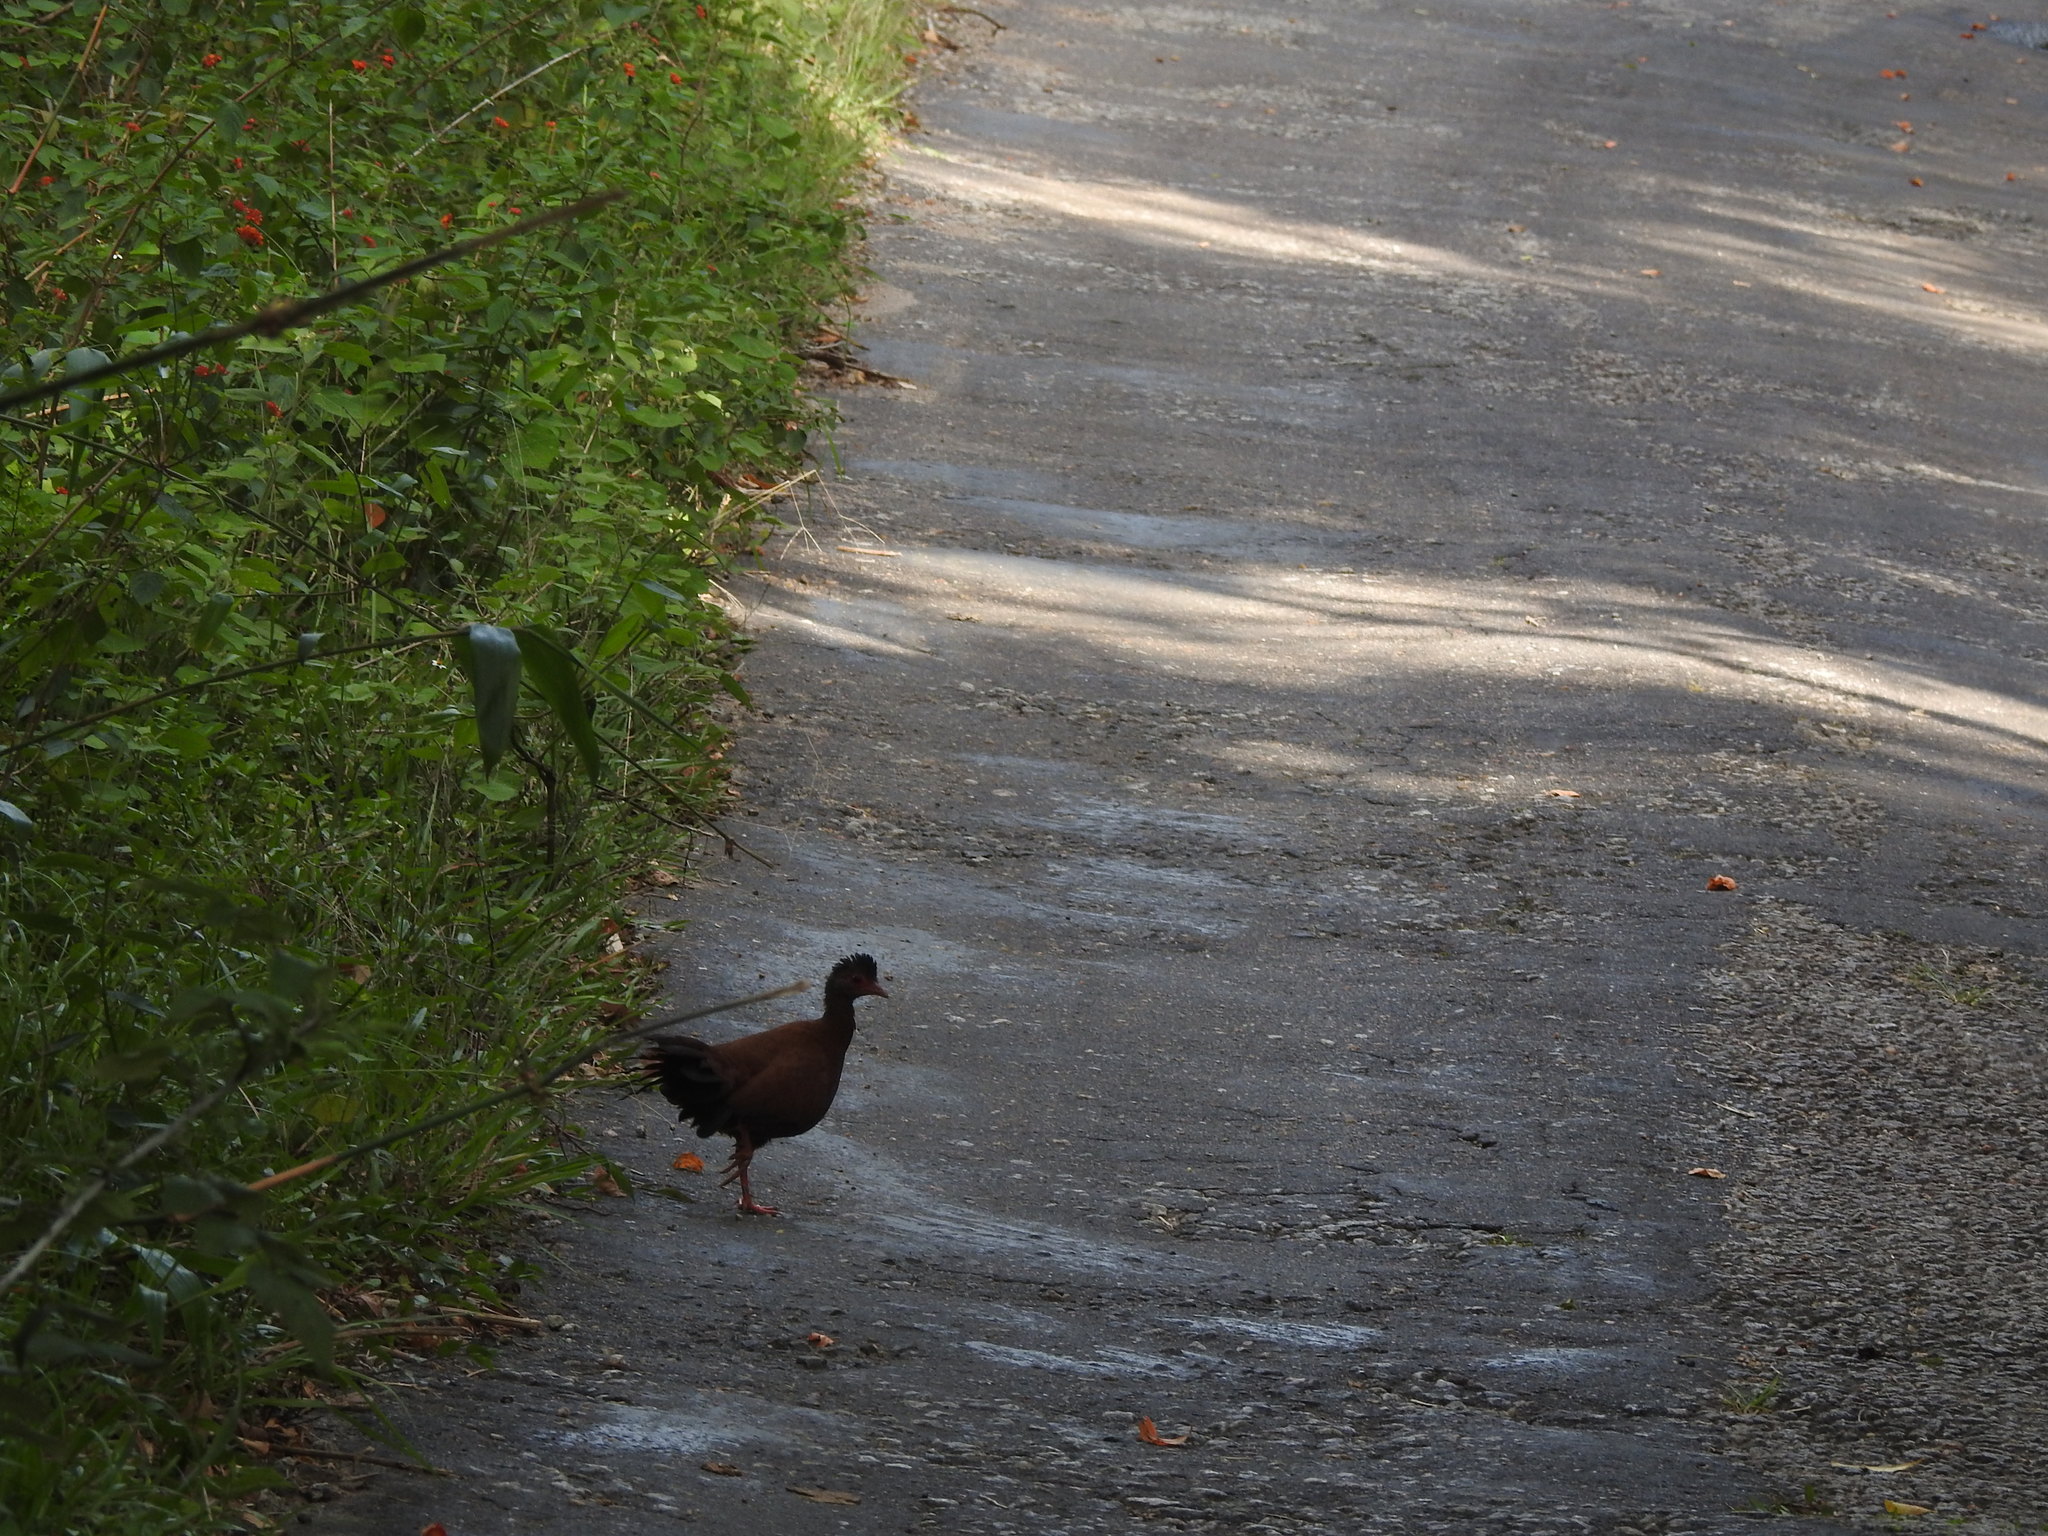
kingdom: Animalia
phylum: Chordata
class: Aves
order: Galliformes
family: Phasianidae
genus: Galloperdix
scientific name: Galloperdix spadicea
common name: Red spurfowl
